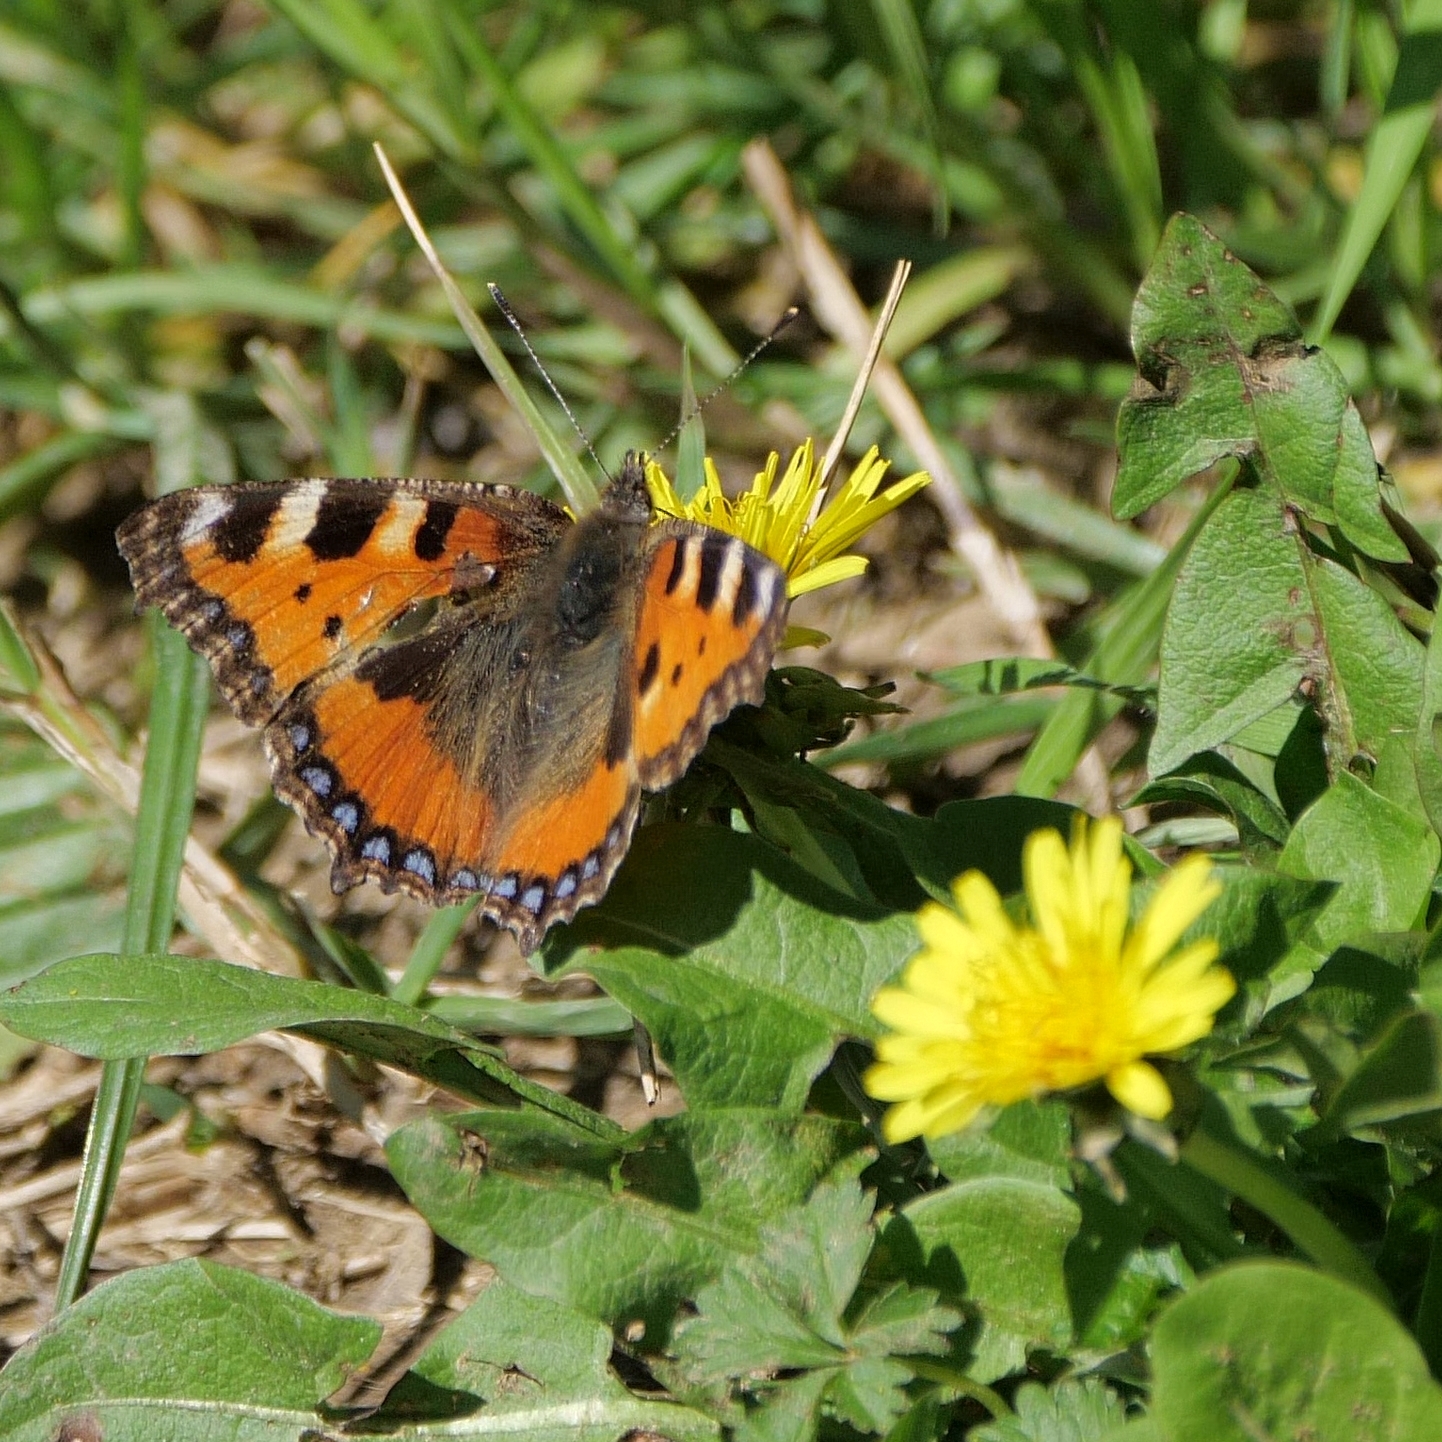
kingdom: Animalia
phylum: Arthropoda
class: Insecta
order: Lepidoptera
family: Nymphalidae
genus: Aglais
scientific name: Aglais urticae
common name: Small tortoiseshell
